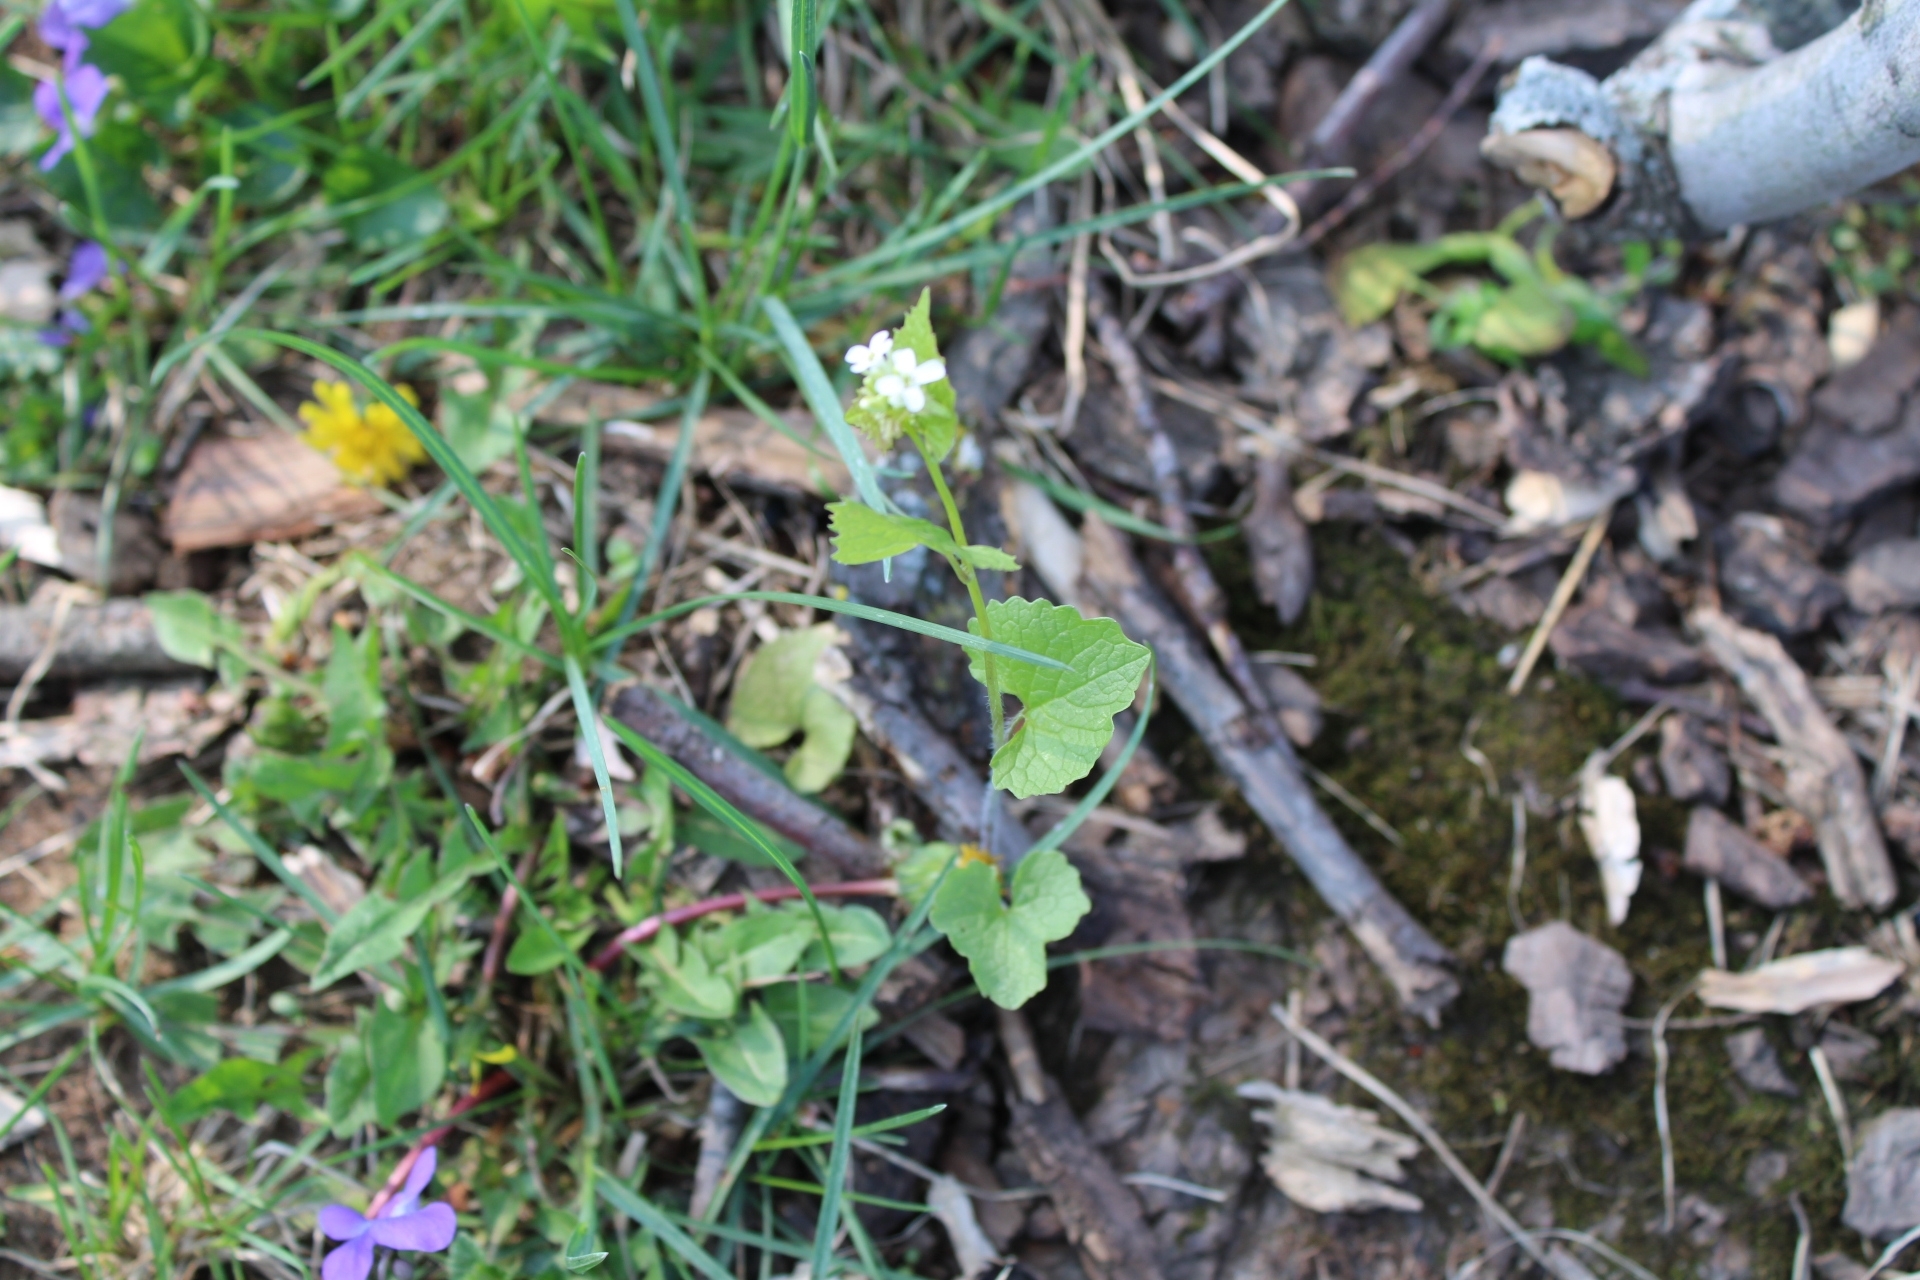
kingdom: Plantae
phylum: Tracheophyta
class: Magnoliopsida
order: Brassicales
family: Brassicaceae
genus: Alliaria
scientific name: Alliaria petiolata
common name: Garlic mustard
